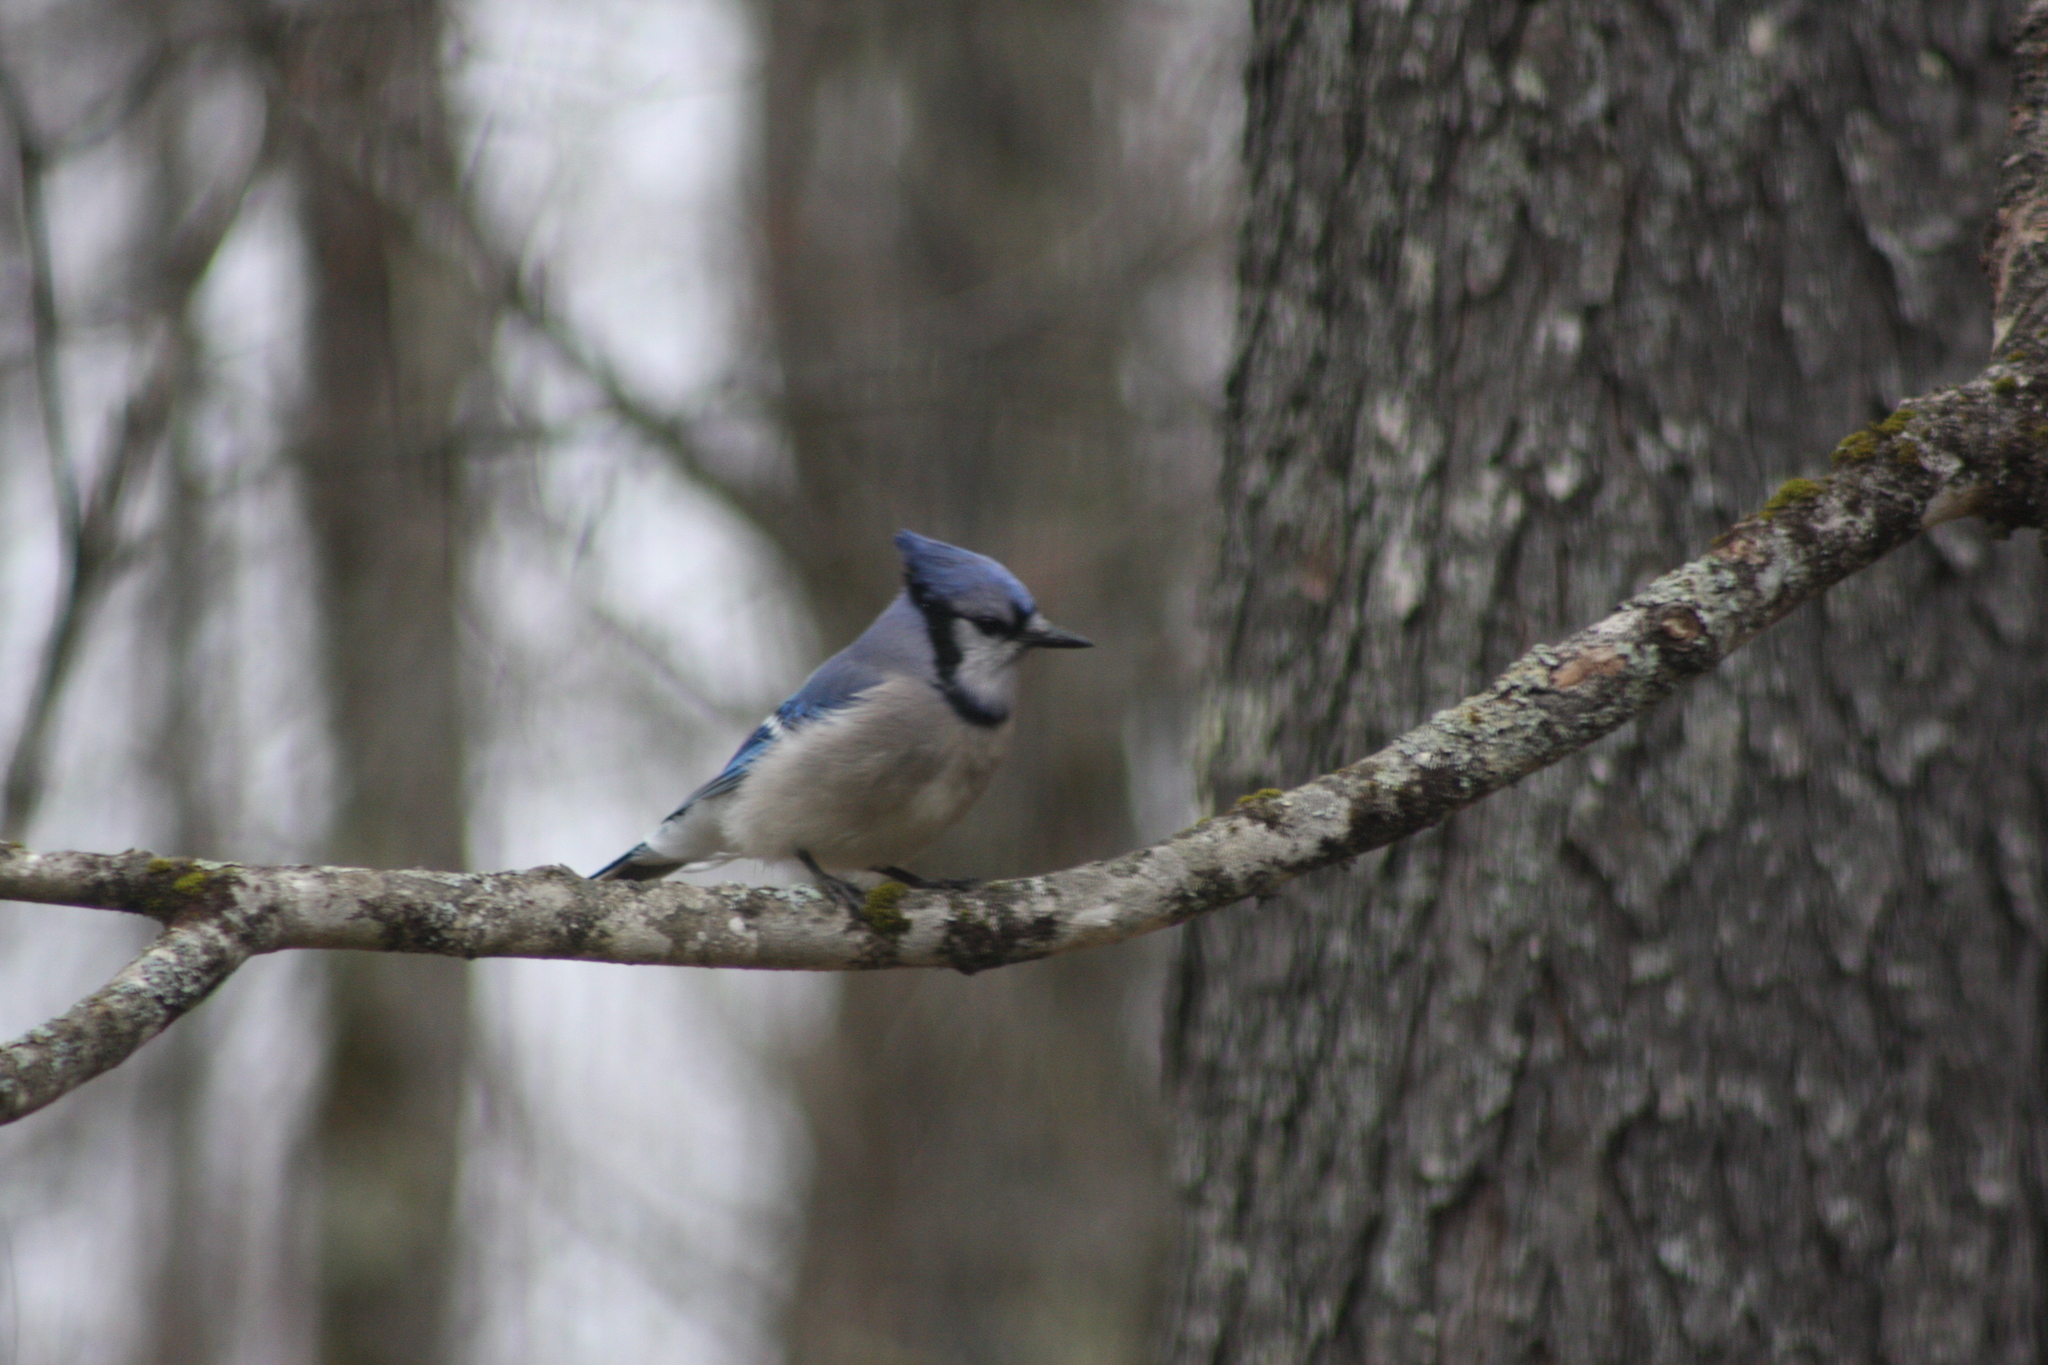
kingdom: Animalia
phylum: Chordata
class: Aves
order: Passeriformes
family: Corvidae
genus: Cyanocitta
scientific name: Cyanocitta cristata
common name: Blue jay
